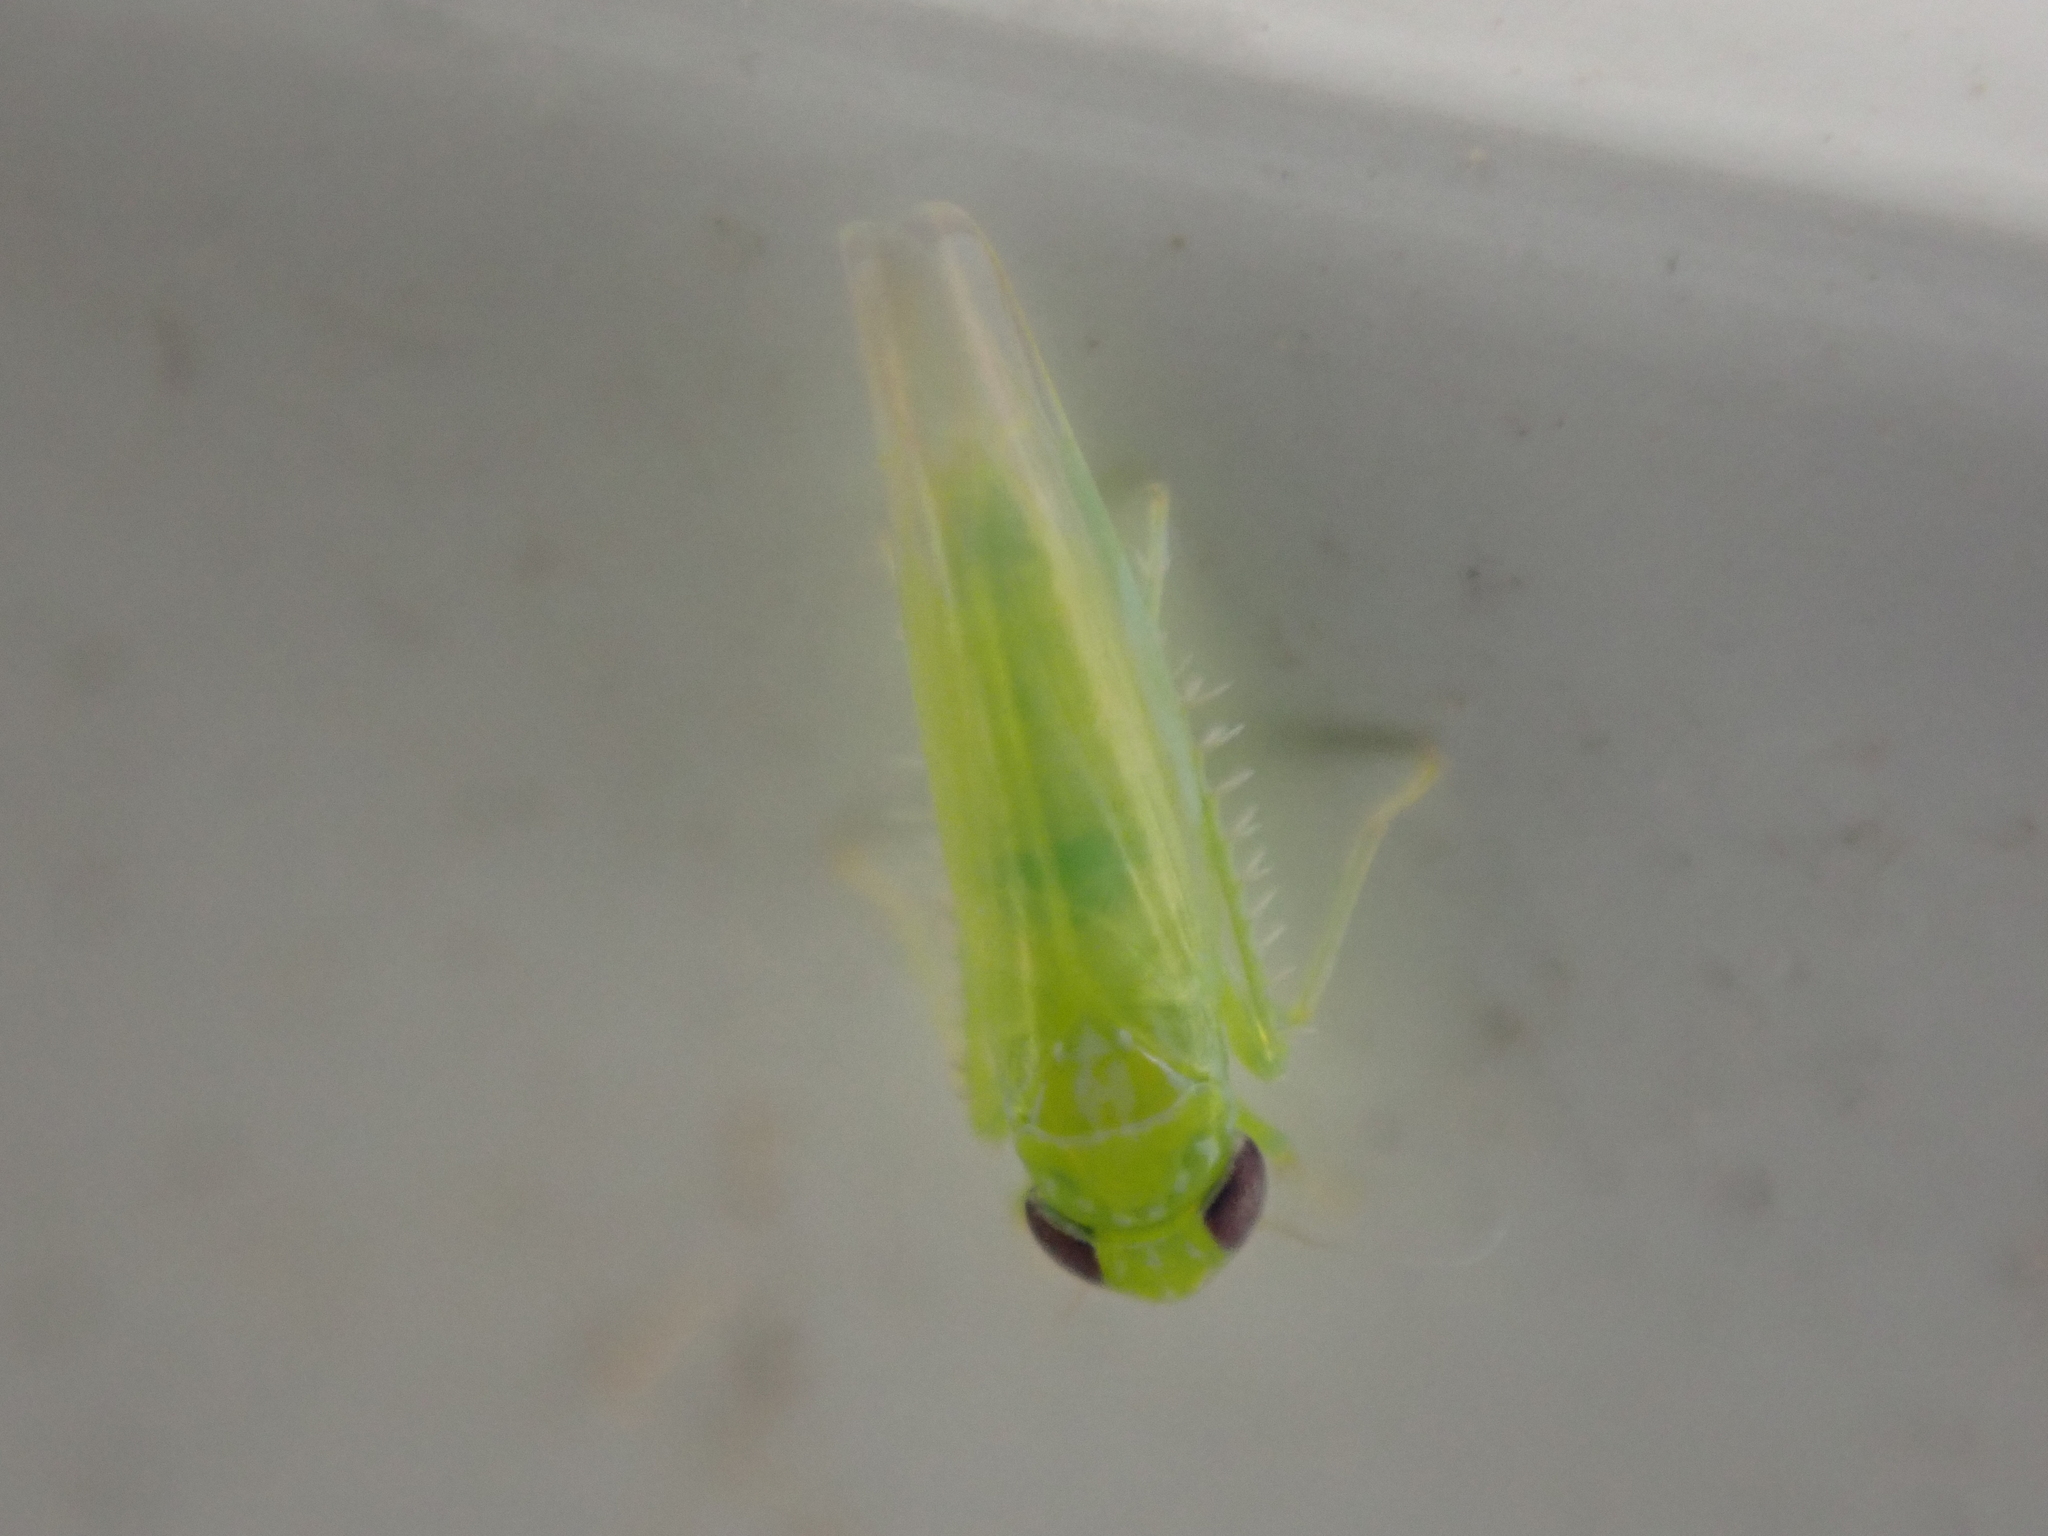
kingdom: Animalia
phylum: Arthropoda
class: Insecta
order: Hemiptera
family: Cicadellidae
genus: Empoasca
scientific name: Empoasca fabae
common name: Potato leafhopper
